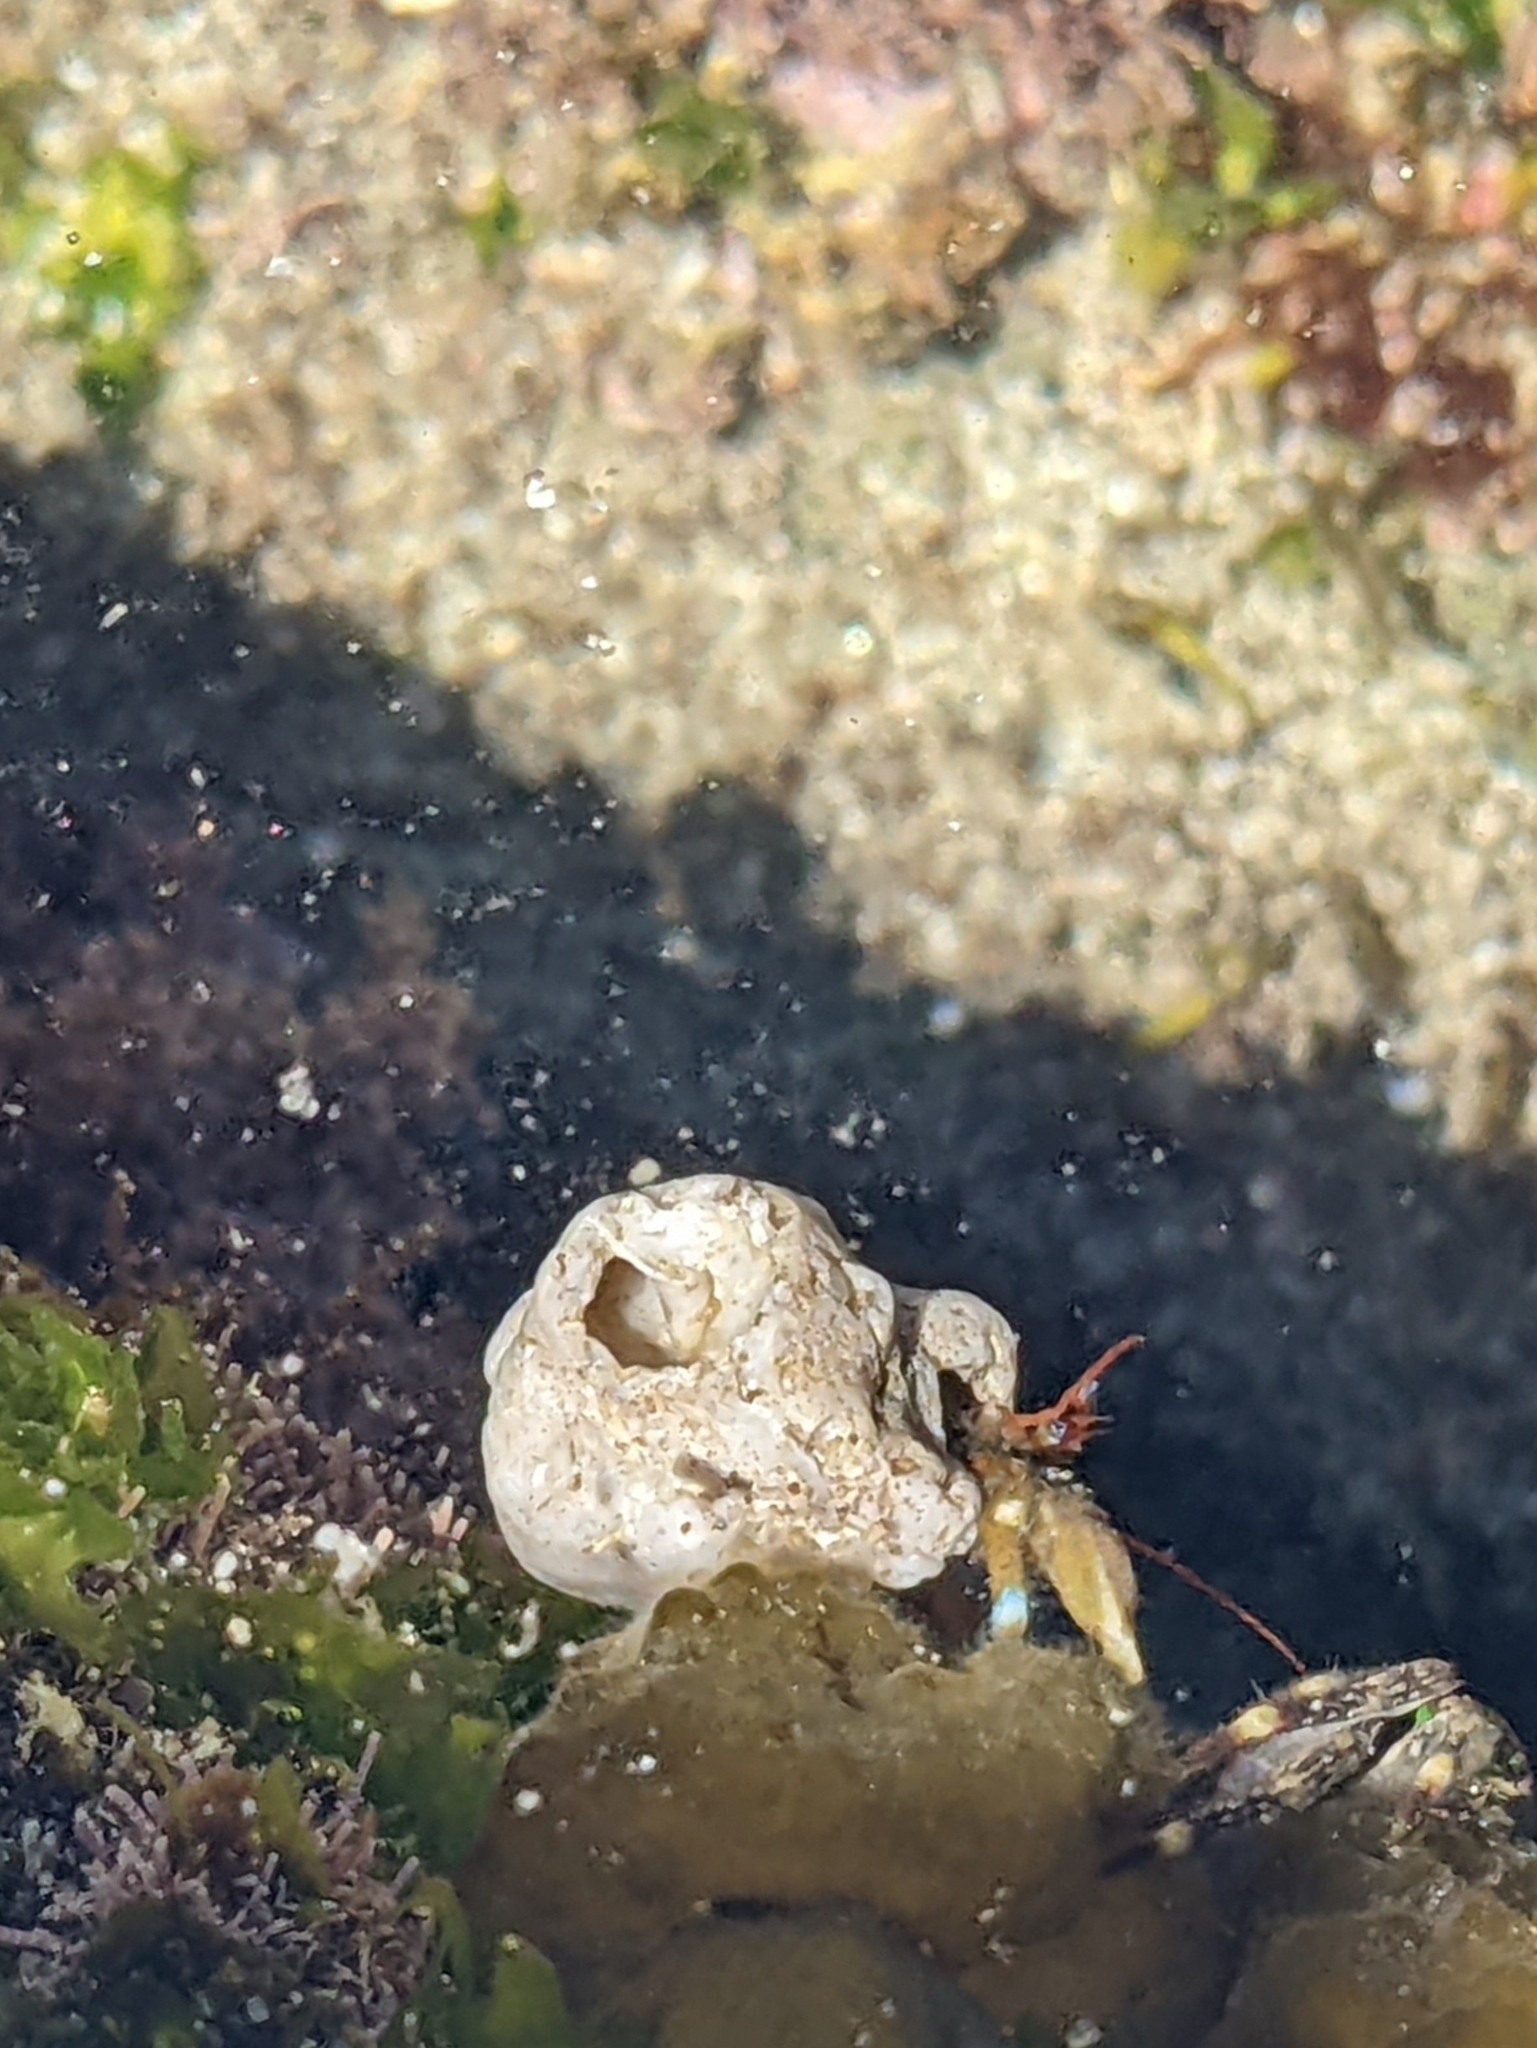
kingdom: Animalia
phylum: Arthropoda
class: Malacostraca
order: Decapoda
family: Paguridae
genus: Pagurus
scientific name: Pagurus samuelis
